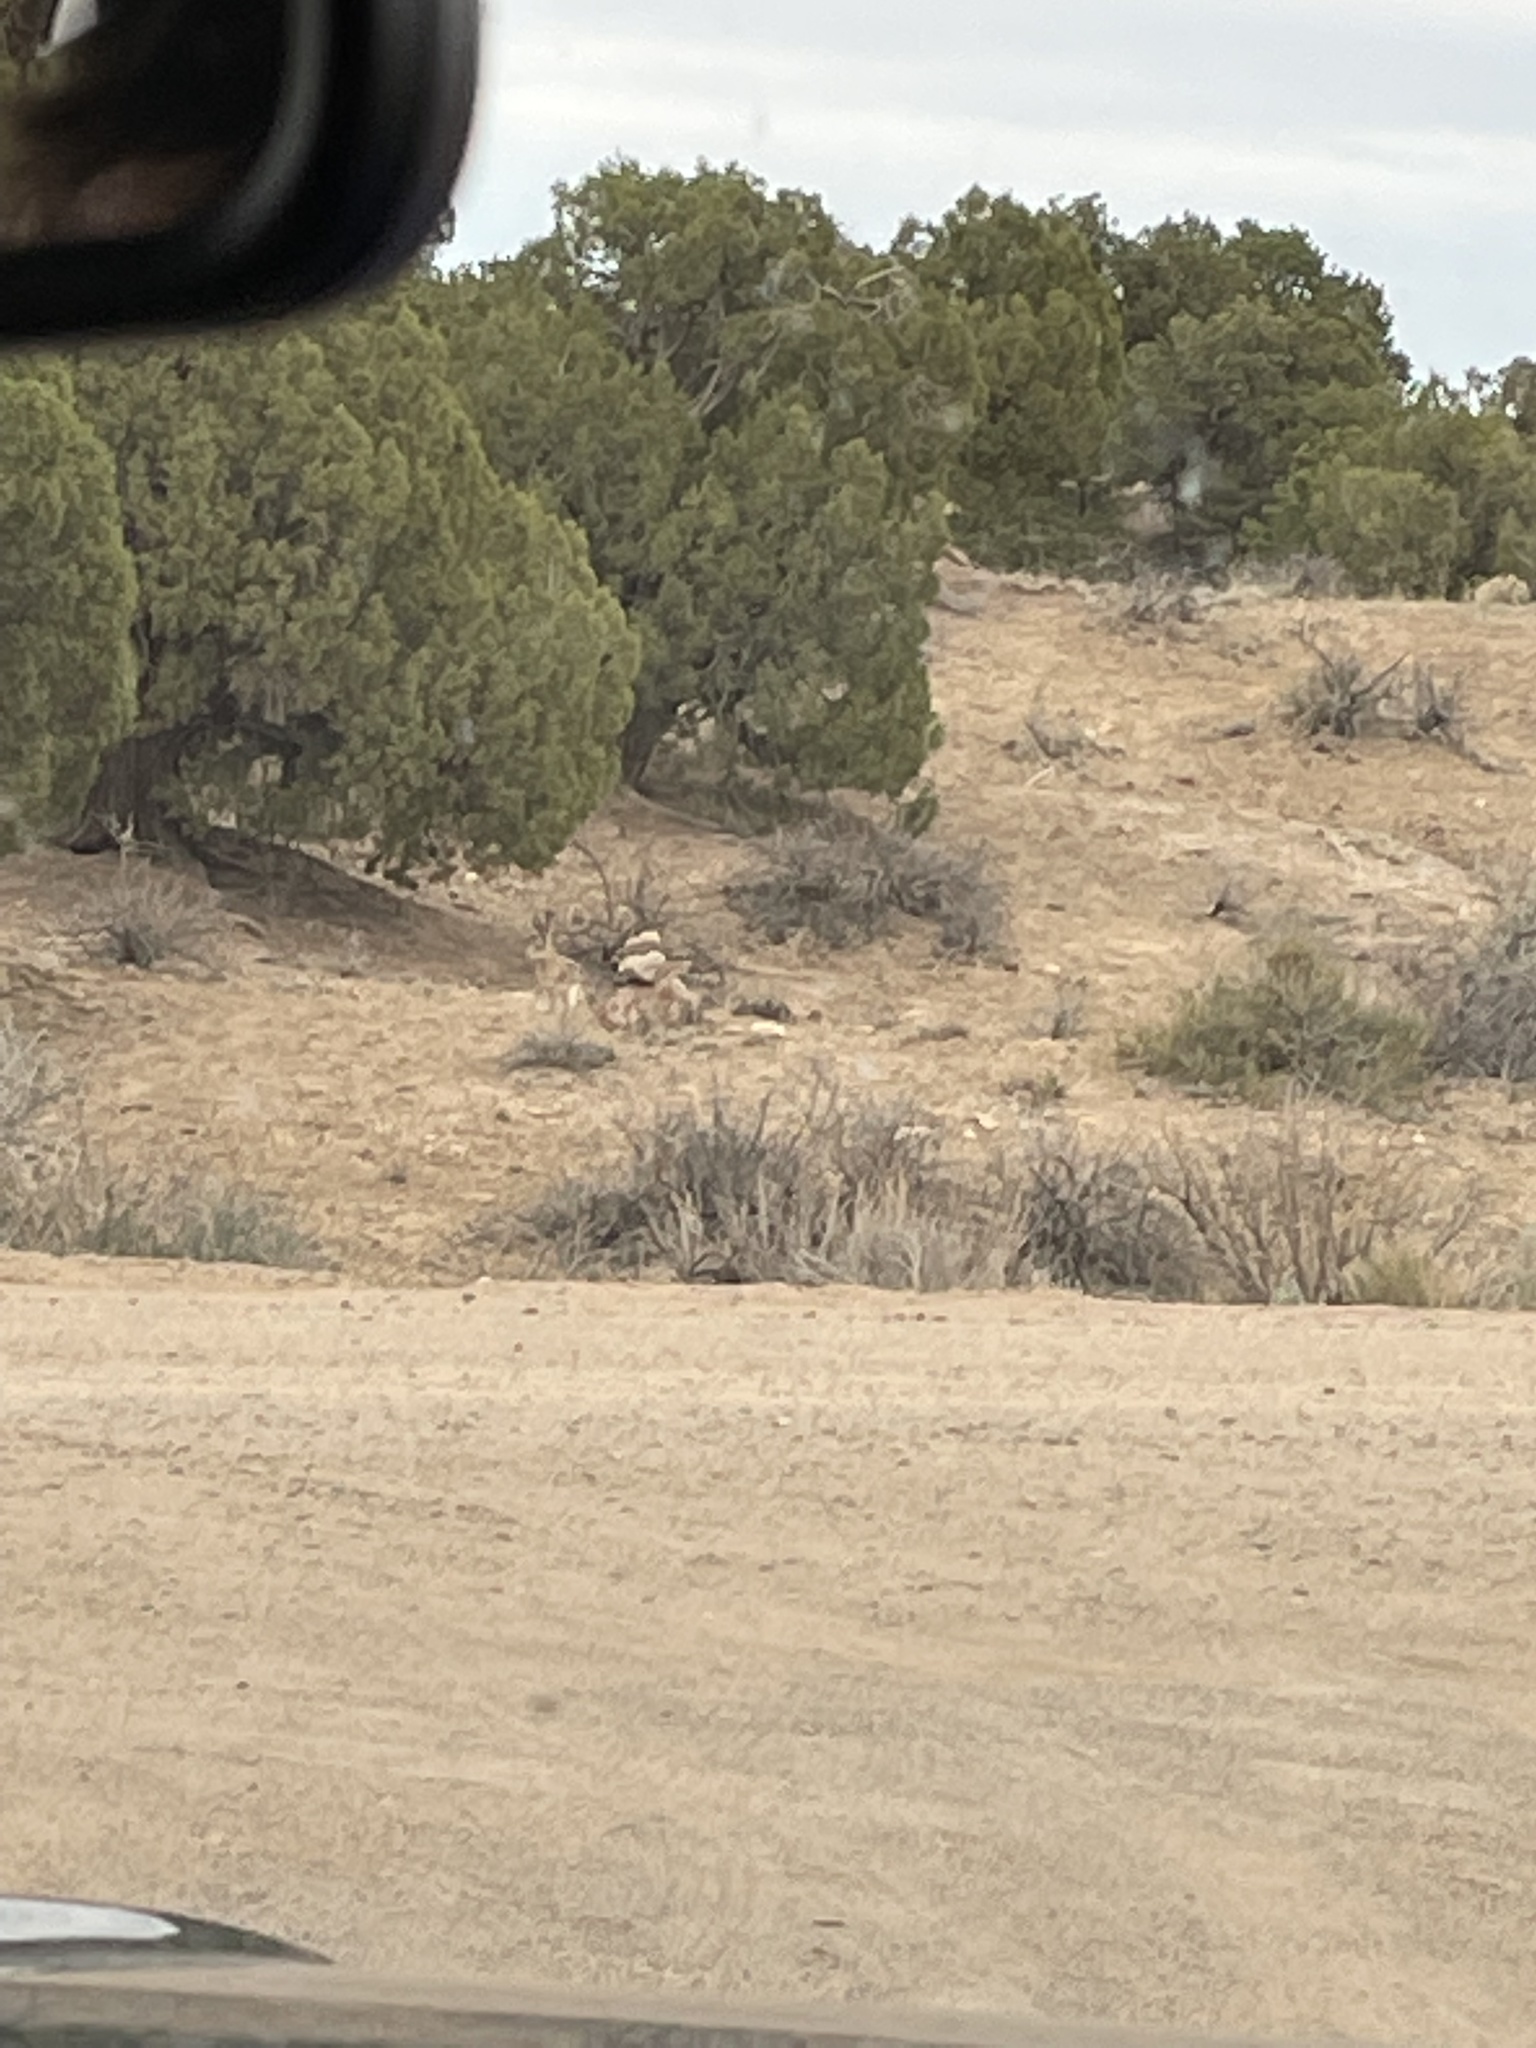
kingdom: Animalia
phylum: Chordata
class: Mammalia
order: Lagomorpha
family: Leporidae
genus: Lepus
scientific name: Lepus californicus
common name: Black-tailed jackrabbit
